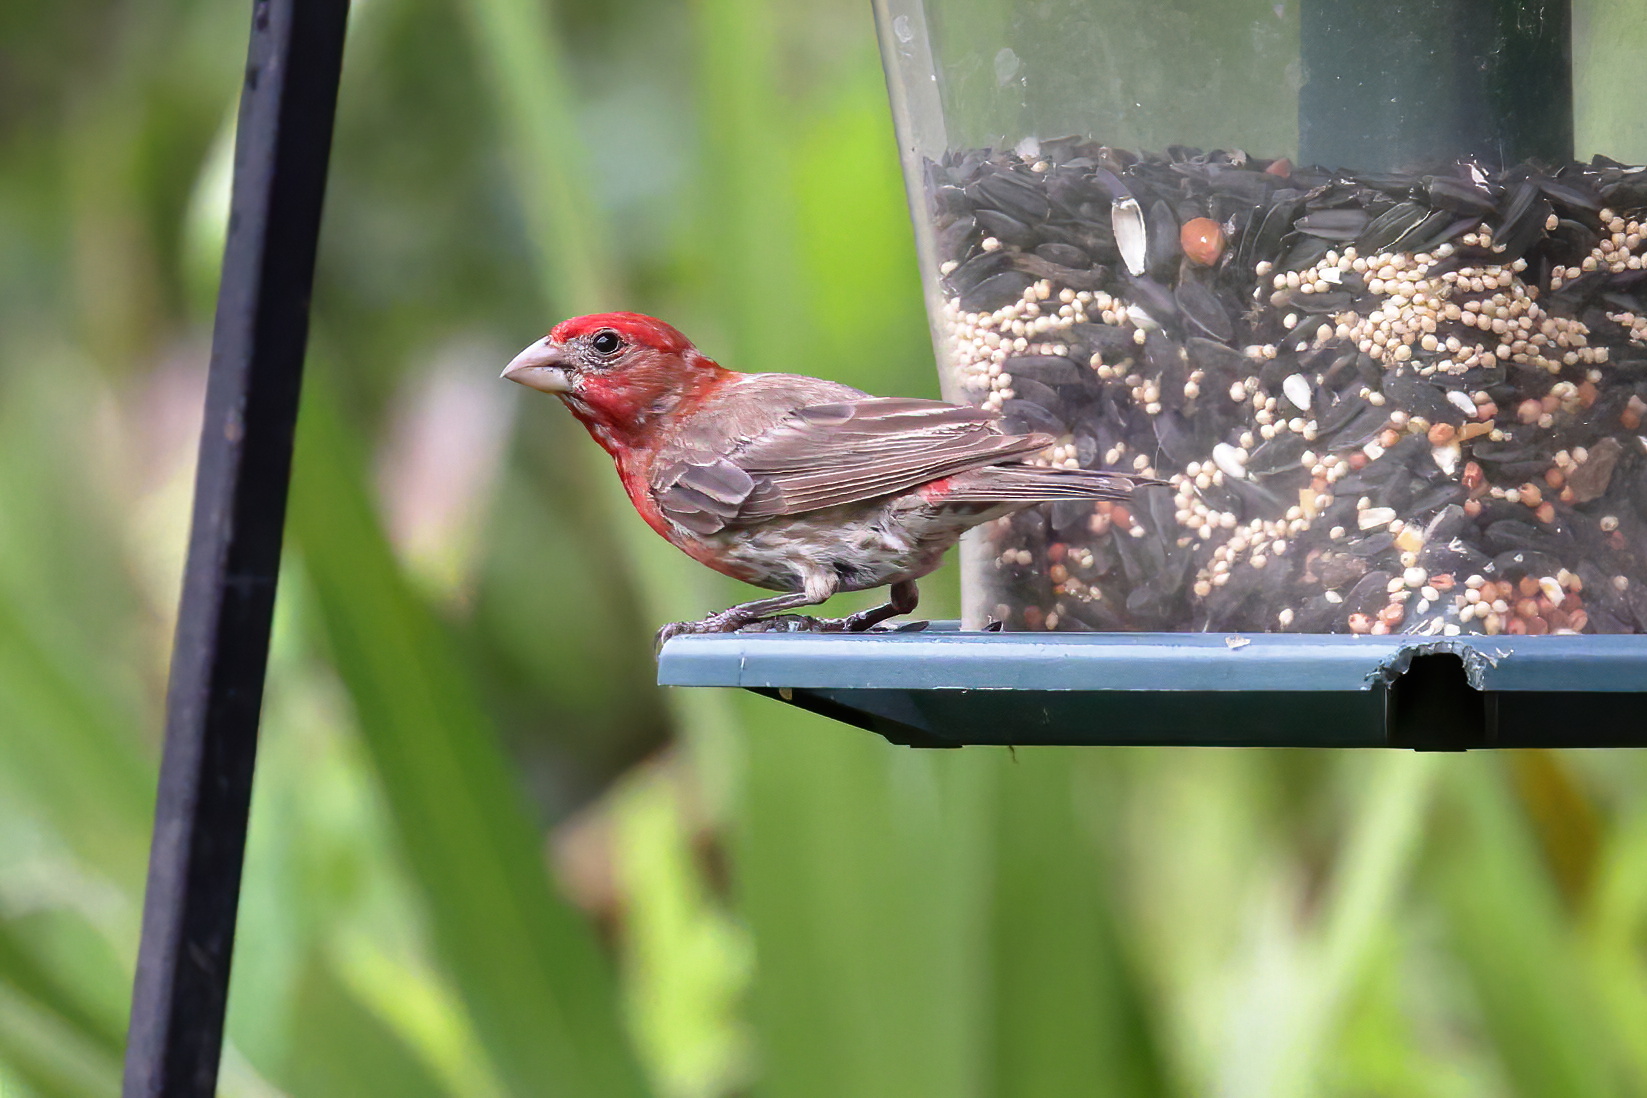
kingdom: Animalia
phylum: Chordata
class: Aves
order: Passeriformes
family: Fringillidae
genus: Haemorhous
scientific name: Haemorhous mexicanus
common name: House finch
